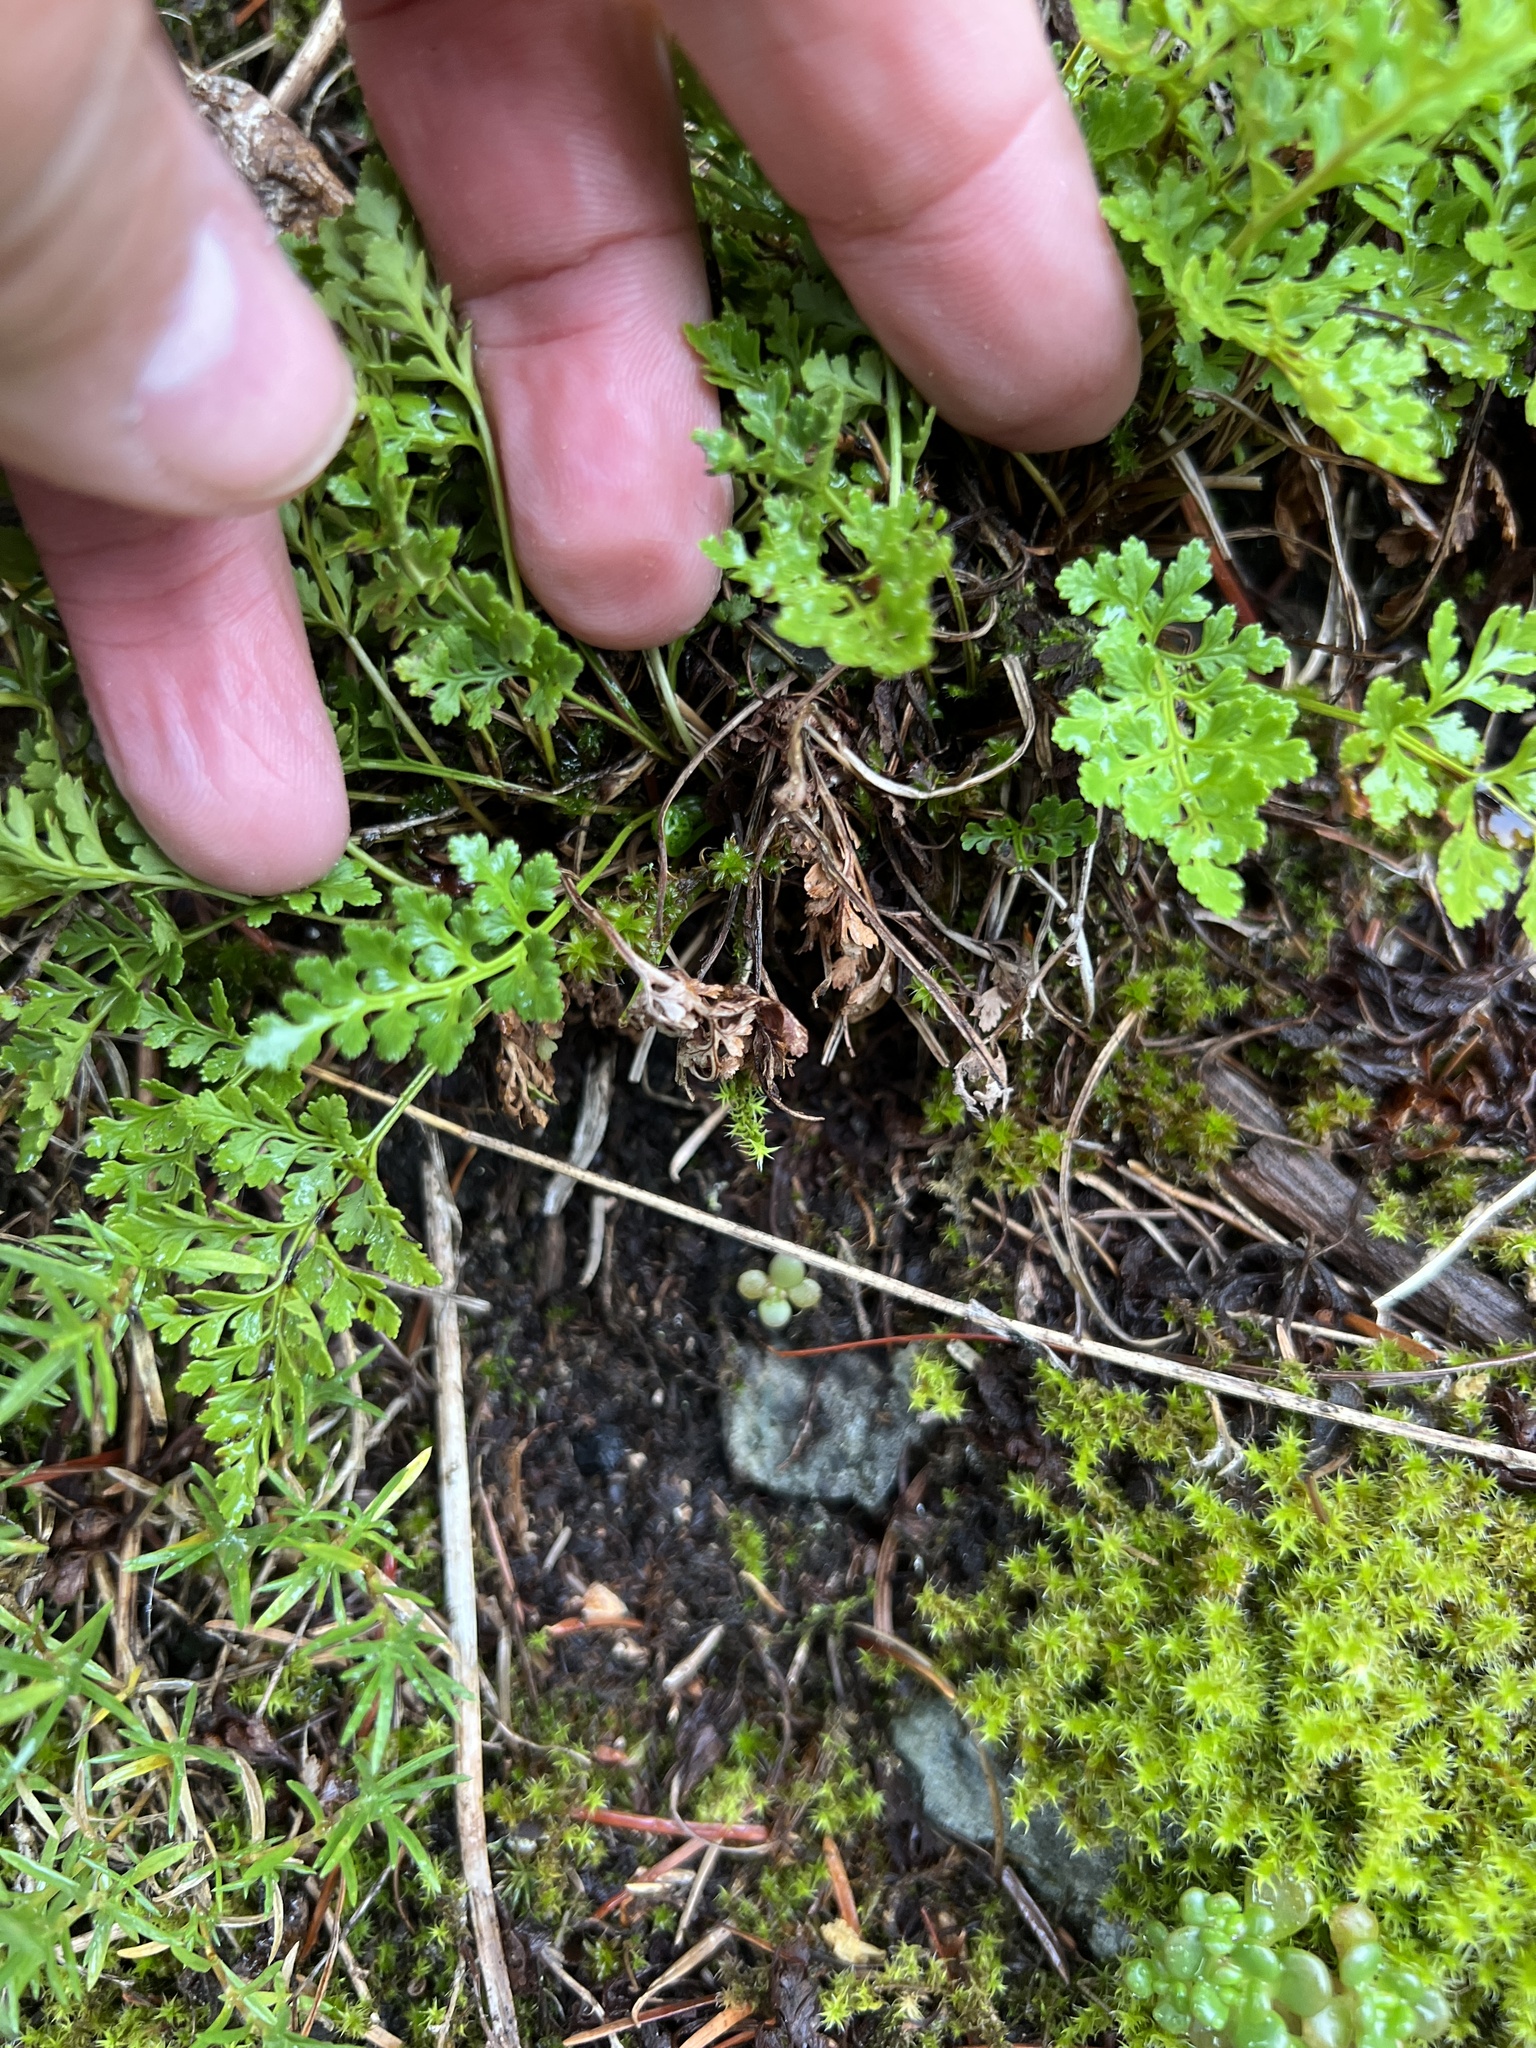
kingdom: Plantae
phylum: Tracheophyta
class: Polypodiopsida
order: Polypodiales
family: Pteridaceae
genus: Cryptogramma
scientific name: Cryptogramma acrostichoides
